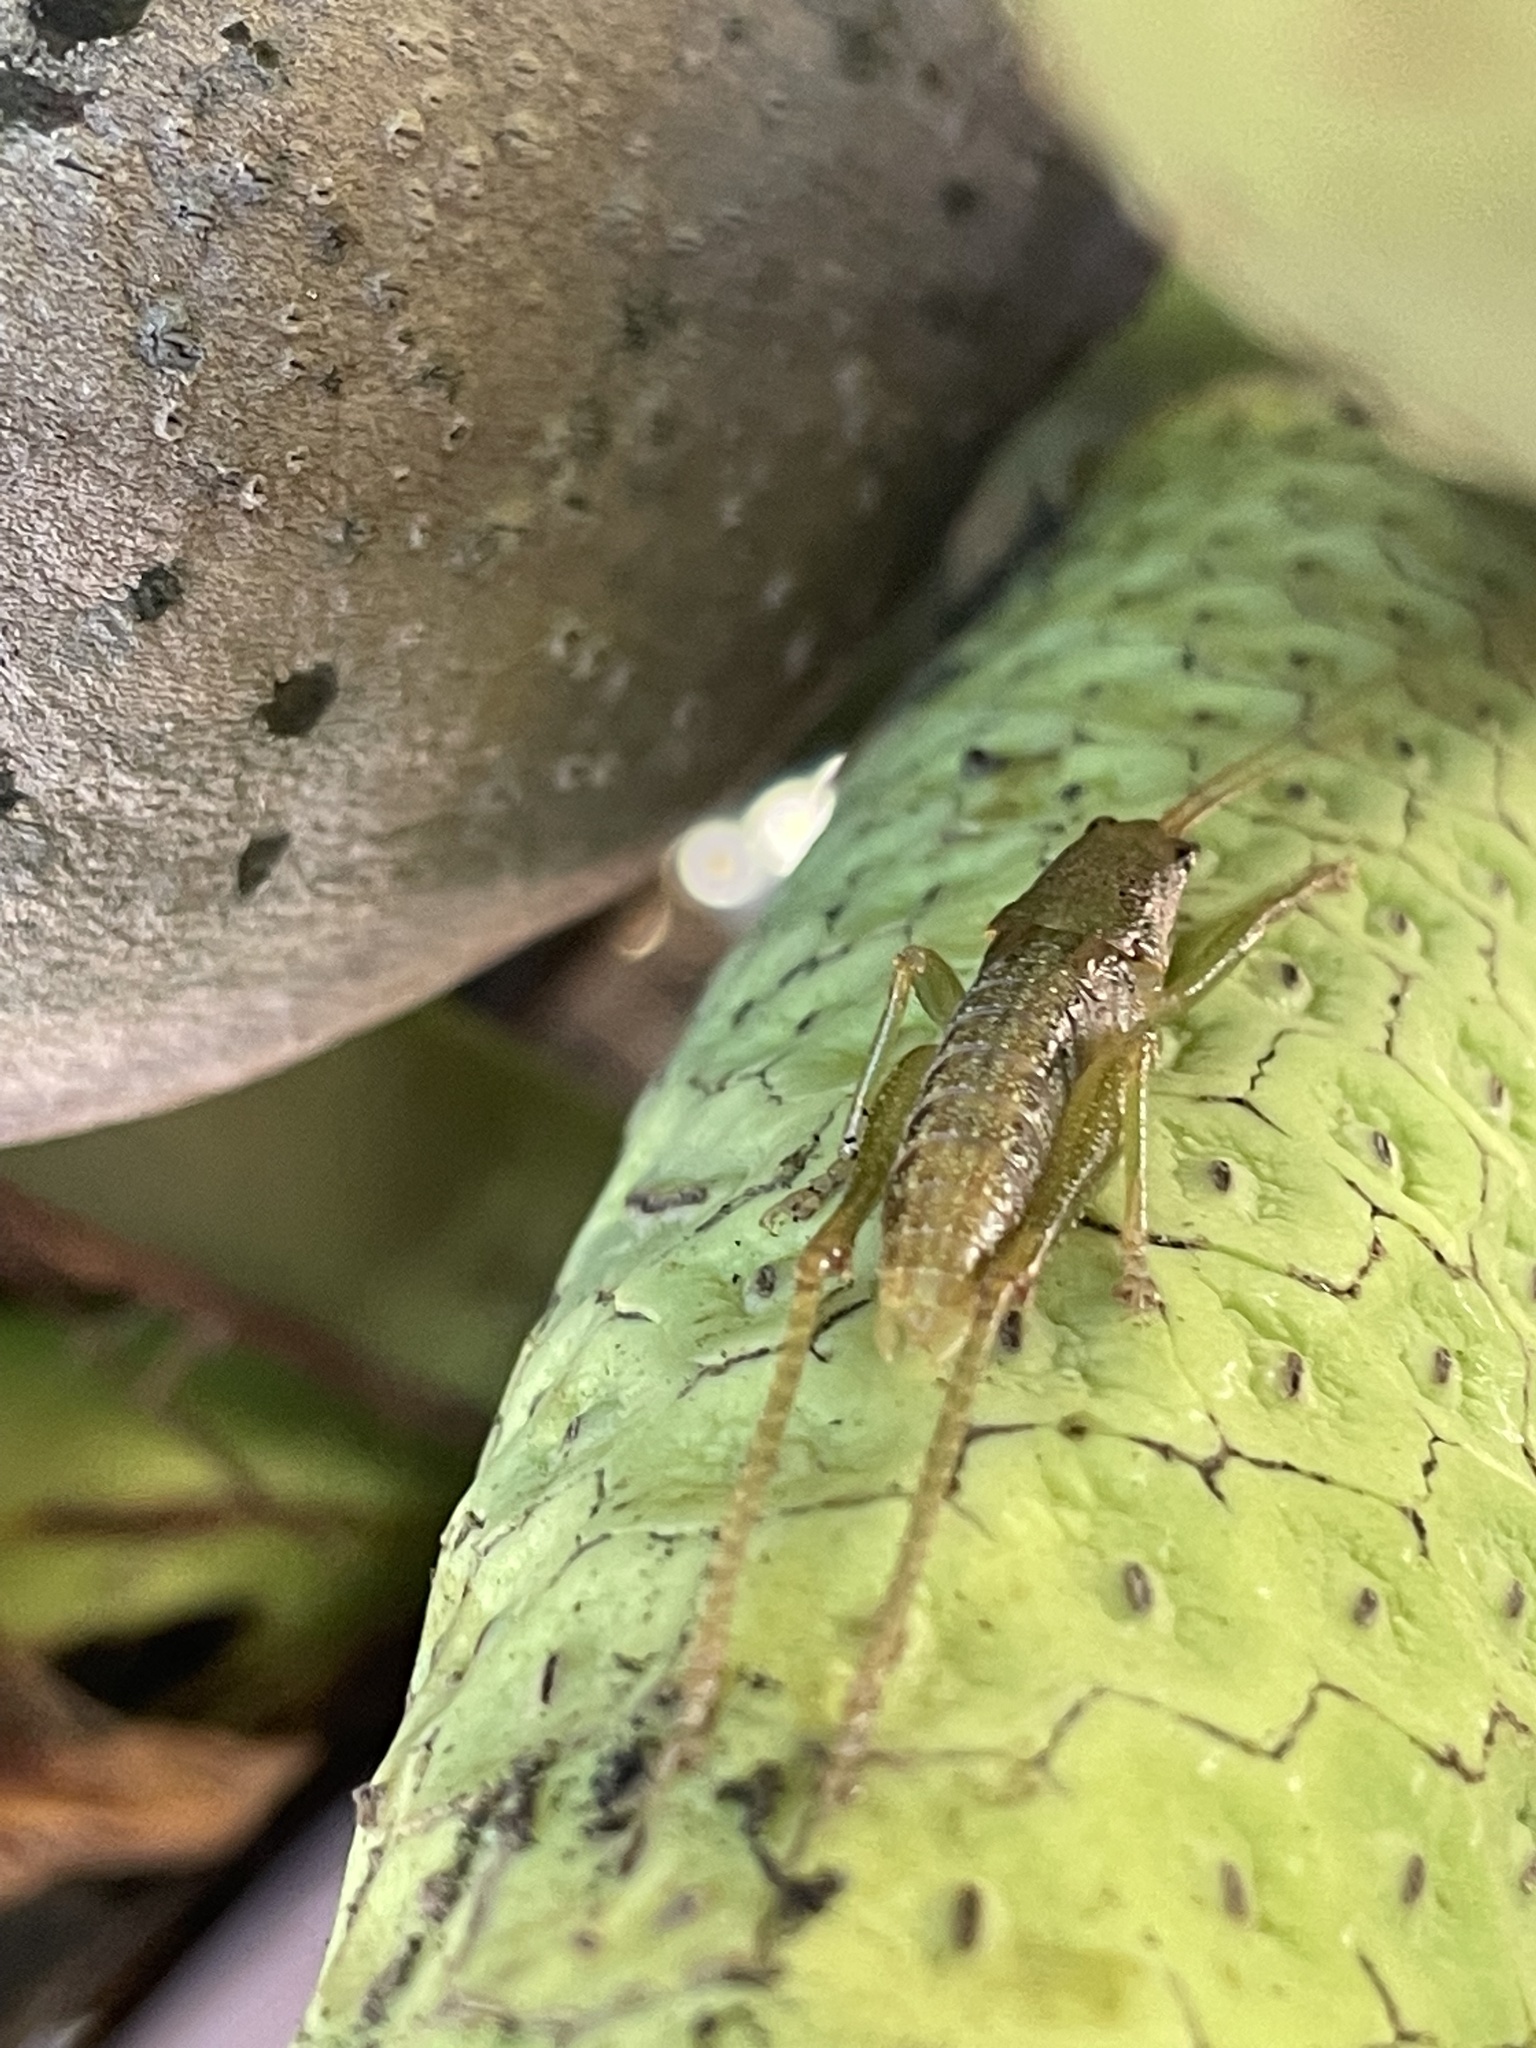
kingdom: Animalia
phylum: Arthropoda
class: Insecta
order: Orthoptera
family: Tettigoniidae
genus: Austrosalomona
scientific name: Austrosalomona falcata
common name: Olive-green coastal katydid
